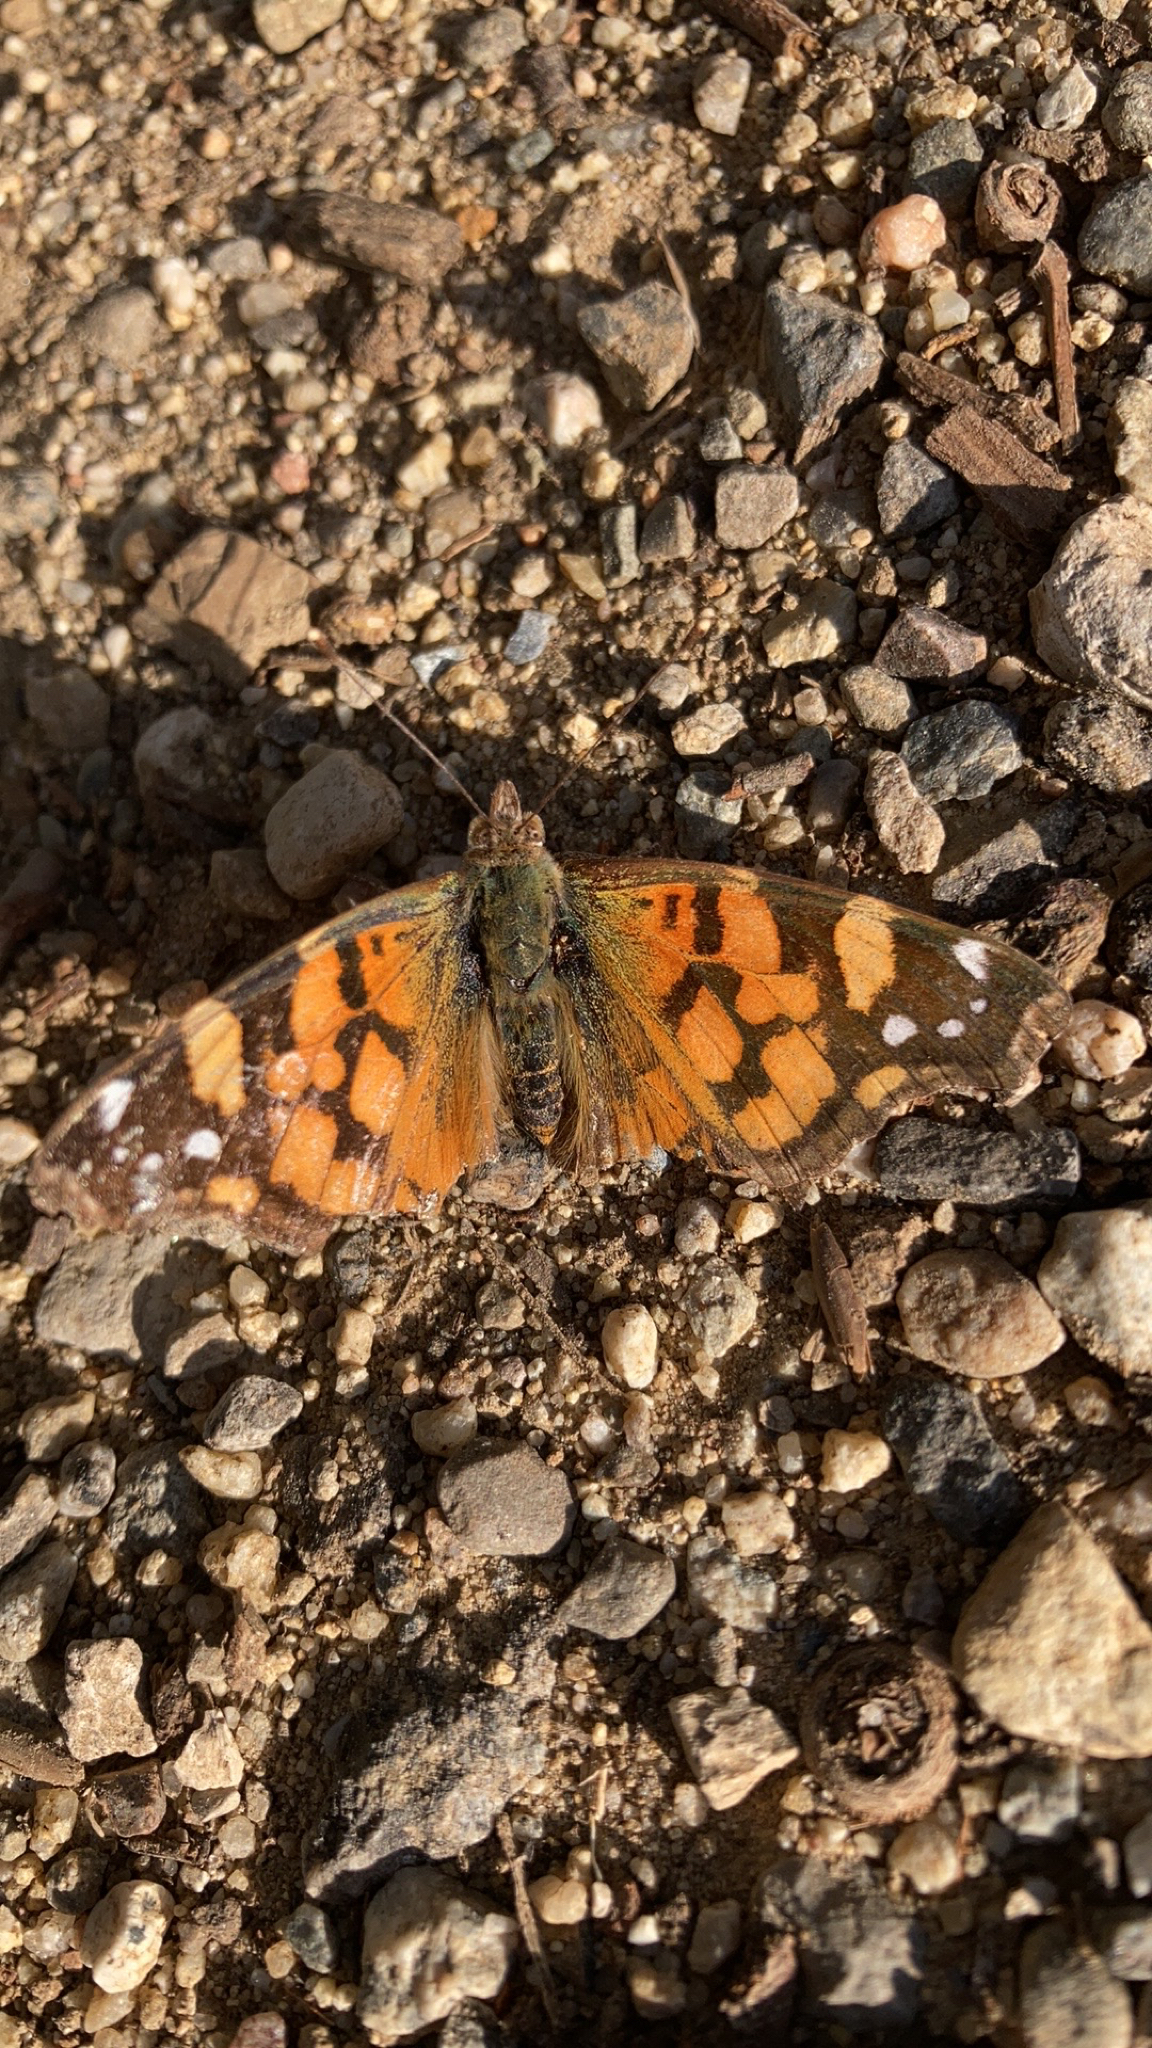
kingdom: Animalia
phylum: Arthropoda
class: Insecta
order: Lepidoptera
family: Nymphalidae
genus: Vanessa
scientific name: Vanessa annabella
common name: West coast lady
